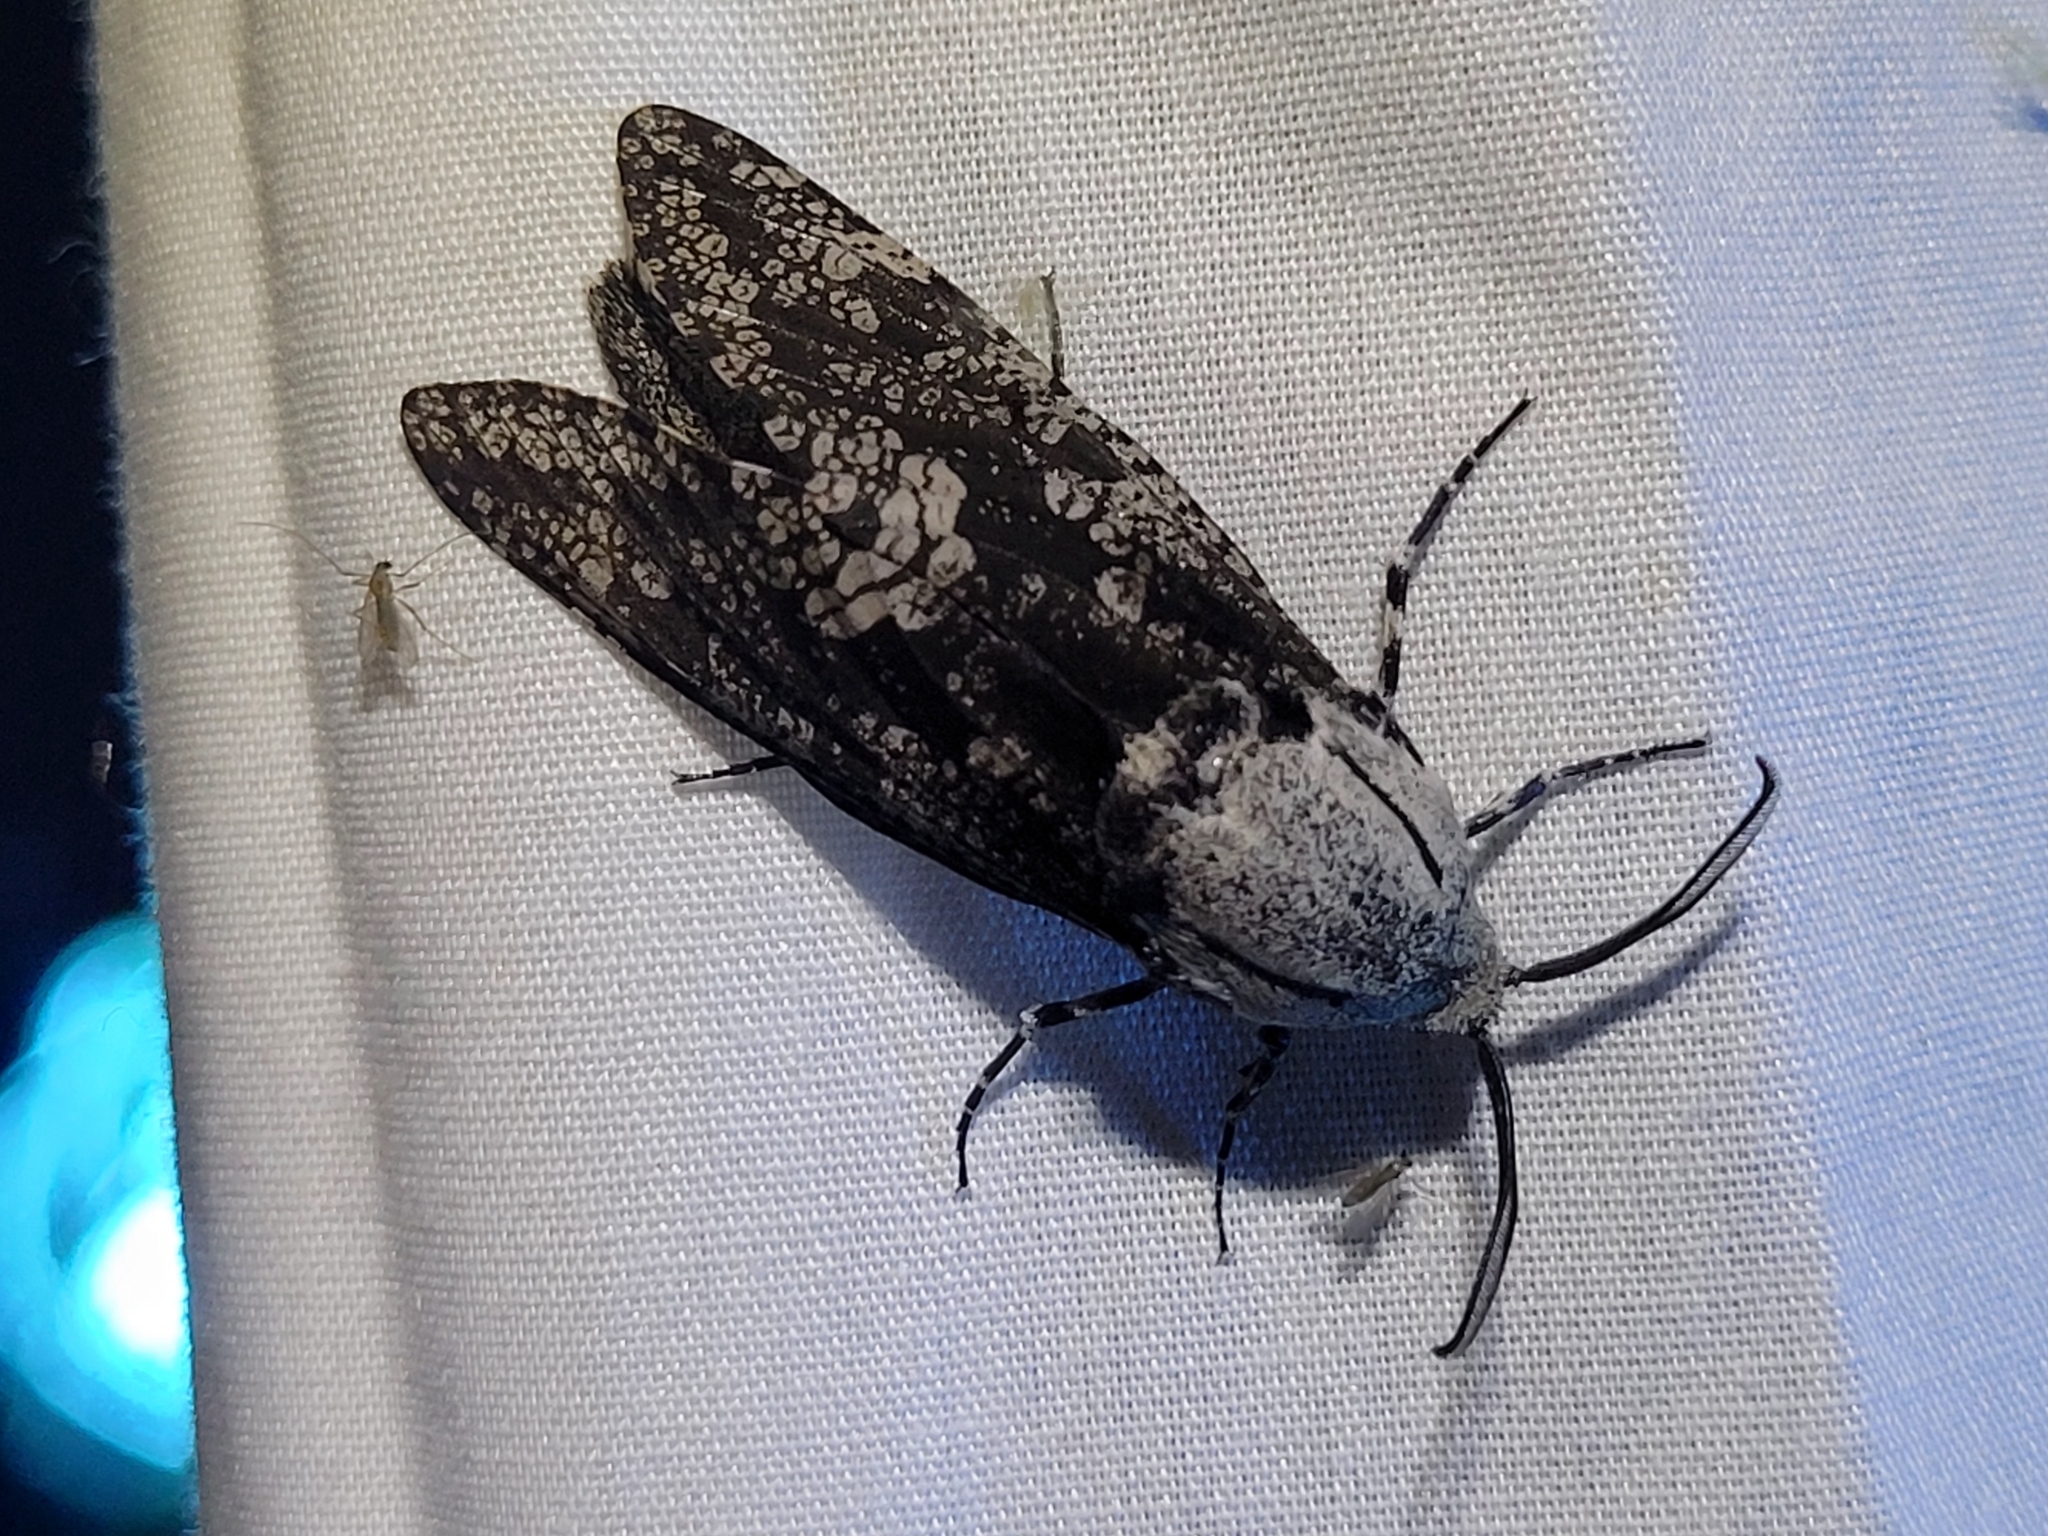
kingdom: Animalia
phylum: Arthropoda
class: Insecta
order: Lepidoptera
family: Cossidae
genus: Prionoxystus
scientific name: Prionoxystus robiniae
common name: Carpenterworm
